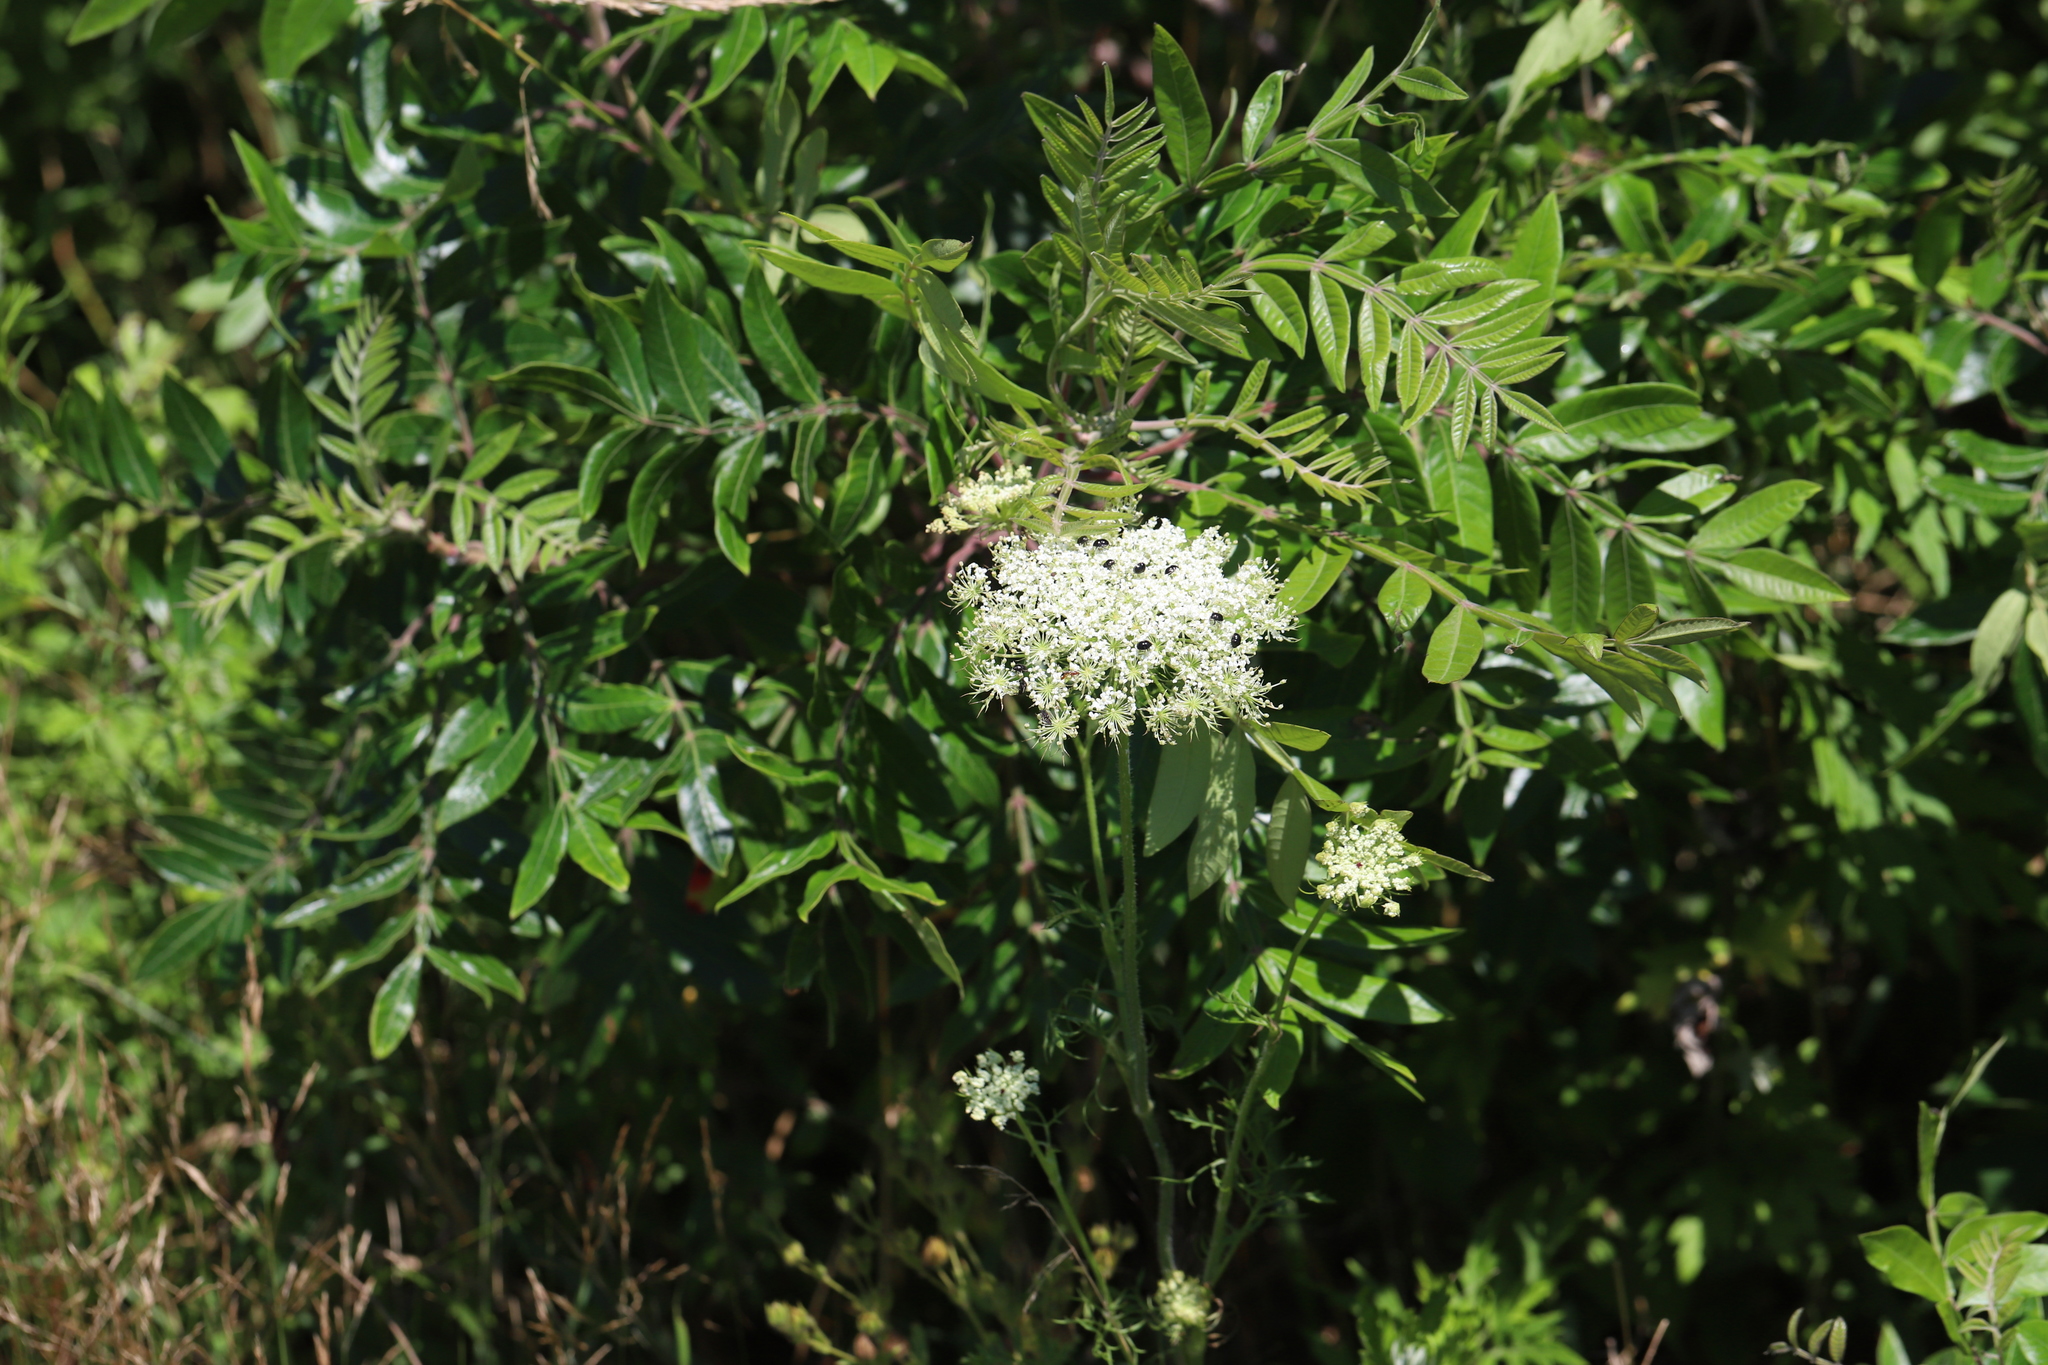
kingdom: Plantae
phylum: Tracheophyta
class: Magnoliopsida
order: Apiales
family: Apiaceae
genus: Daucus
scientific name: Daucus carota
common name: Wild carrot
